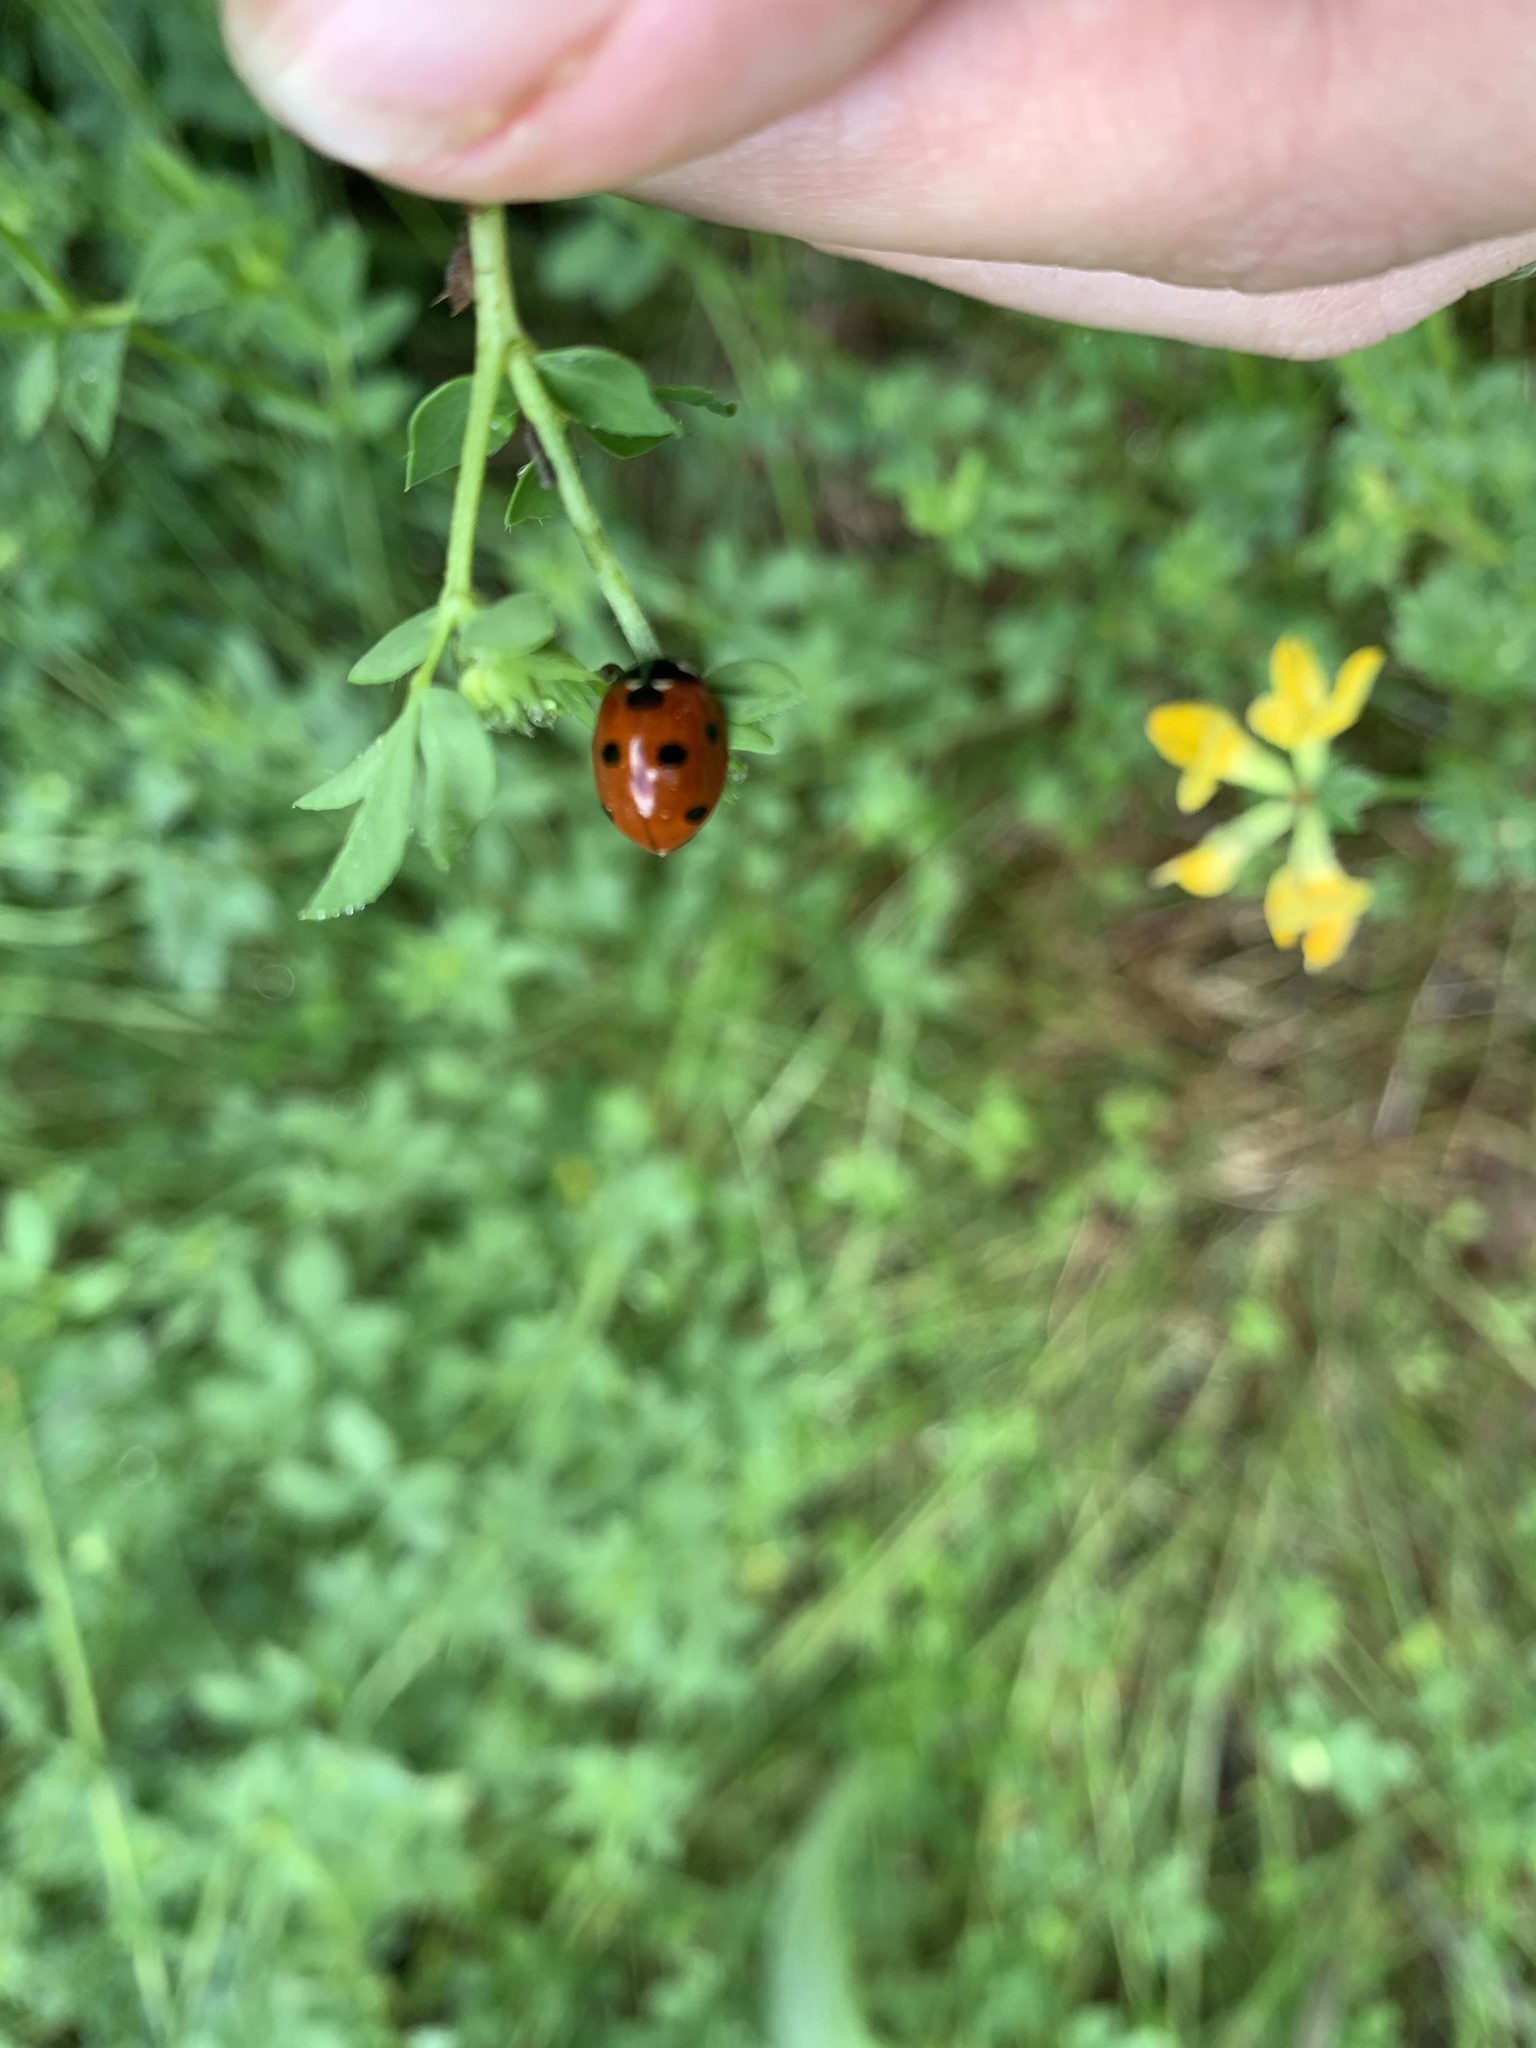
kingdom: Animalia
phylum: Arthropoda
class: Insecta
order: Coleoptera
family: Coccinellidae
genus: Coccinella
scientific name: Coccinella septempunctata
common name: Sevenspotted lady beetle
